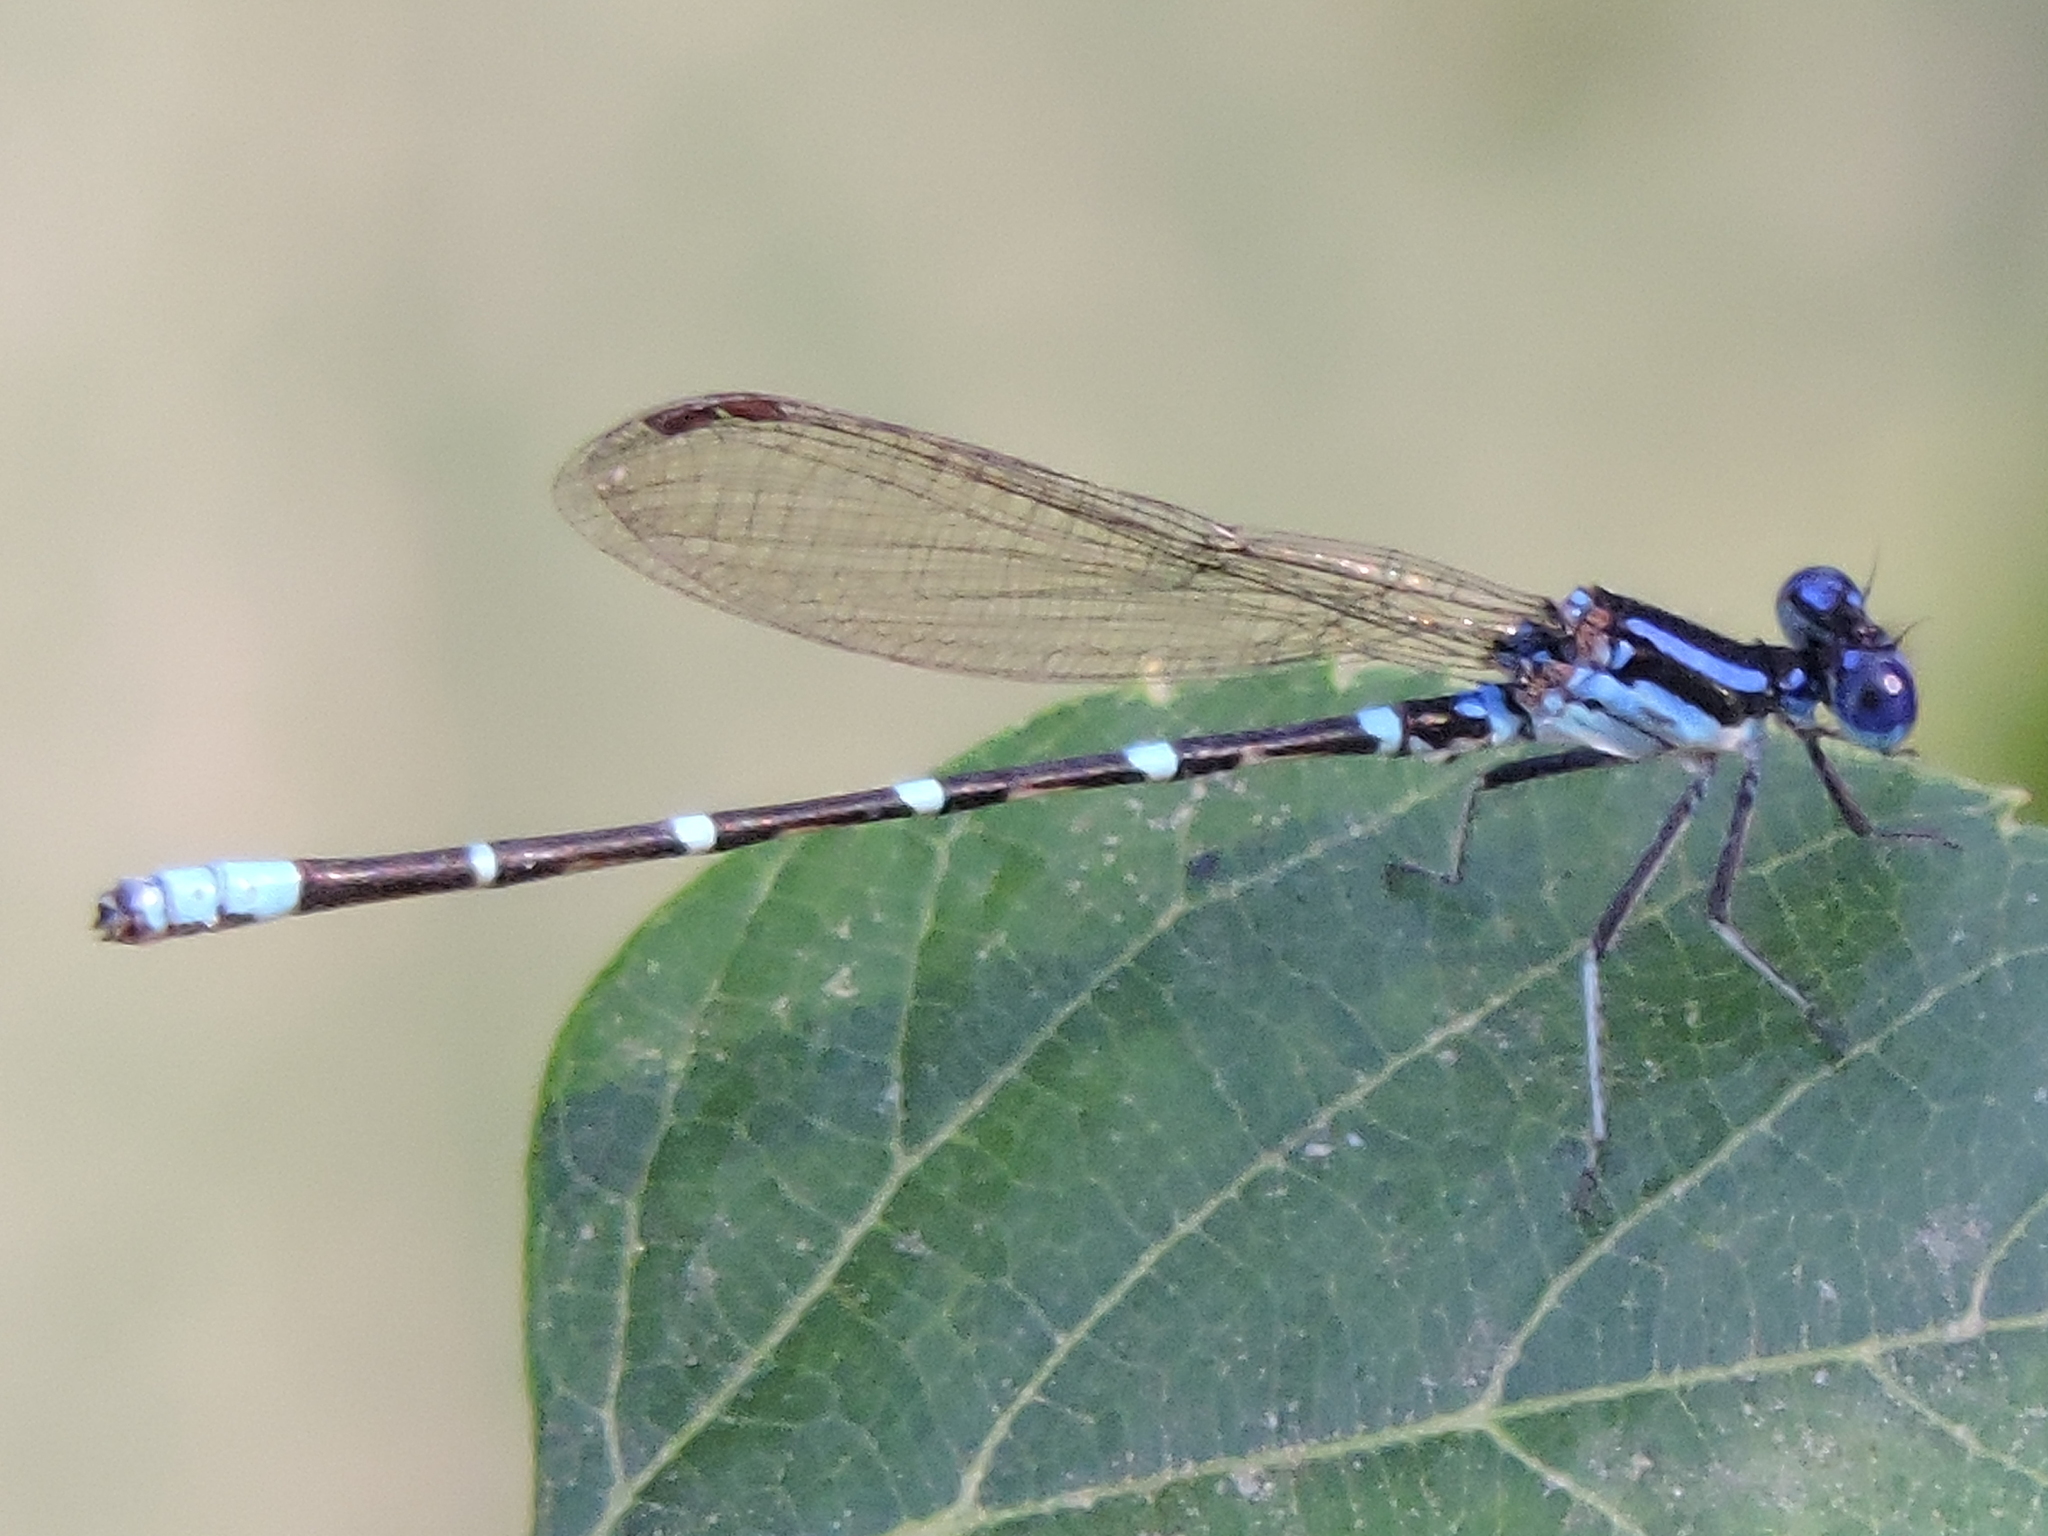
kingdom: Animalia
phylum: Arthropoda
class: Insecta
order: Odonata
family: Coenagrionidae
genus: Argia
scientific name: Argia sedula
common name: Blue-ringed dancer
